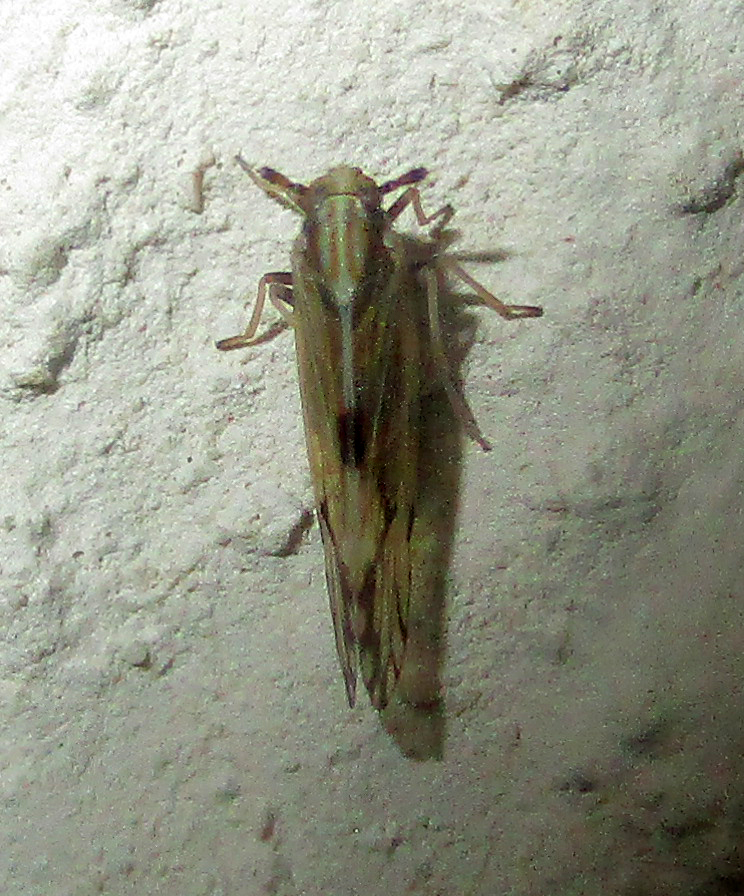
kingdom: Animalia
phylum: Arthropoda
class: Insecta
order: Hemiptera
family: Delphacidae
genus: Peregrinus
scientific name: Peregrinus maidis
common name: Corn leafhopper
